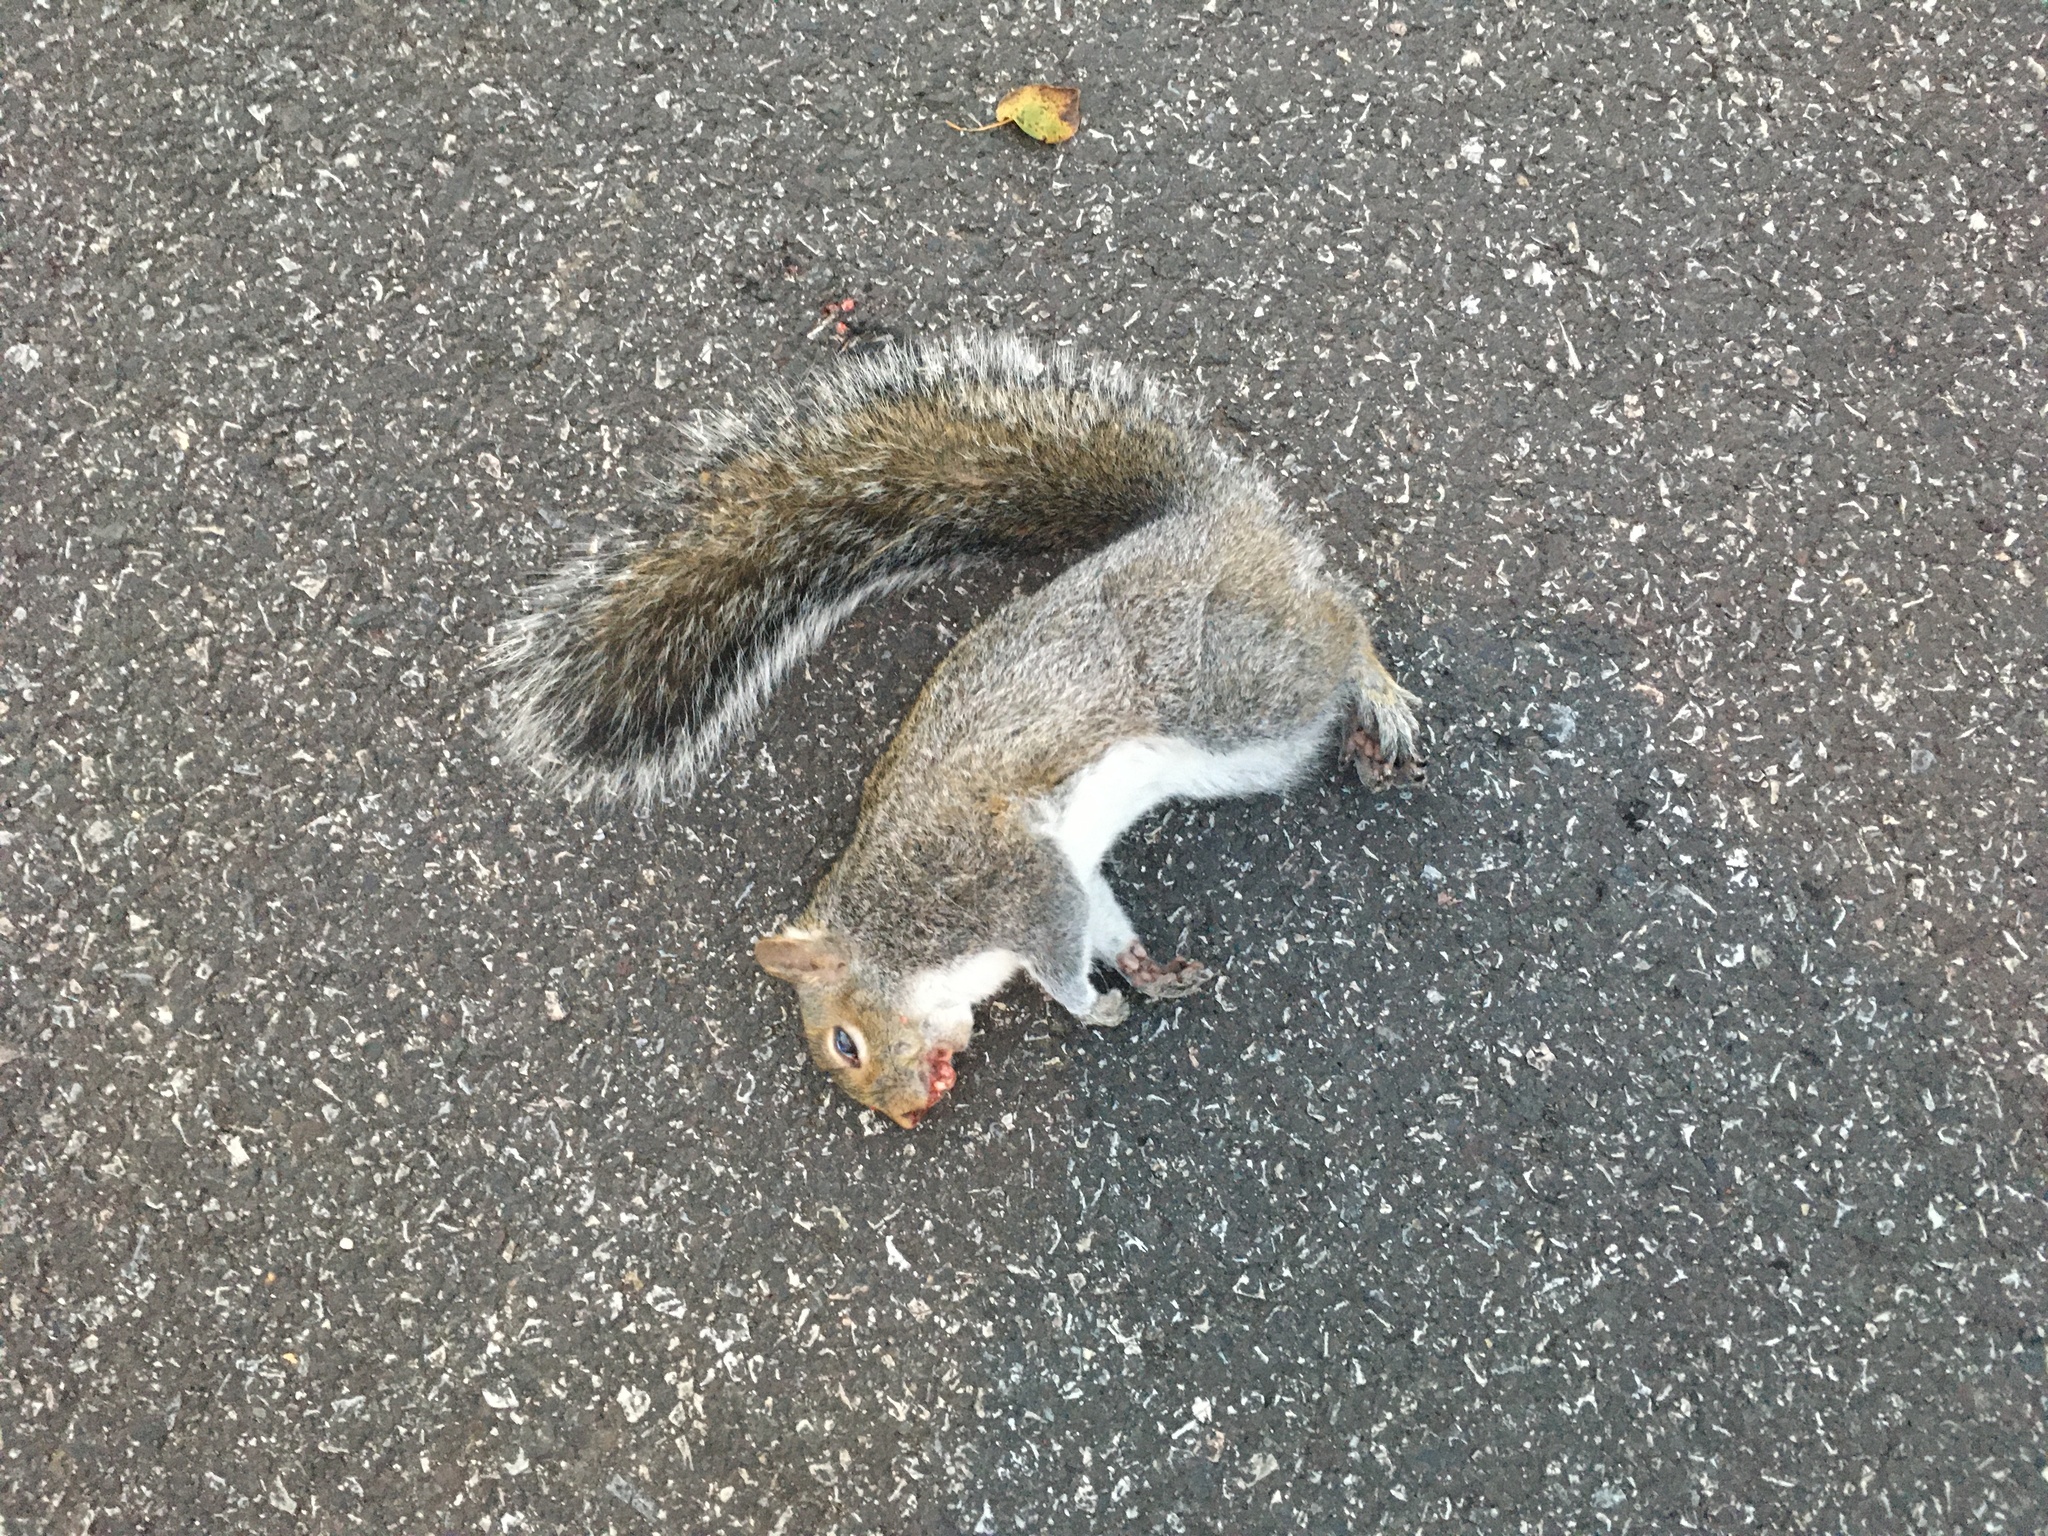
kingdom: Animalia
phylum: Chordata
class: Mammalia
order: Rodentia
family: Sciuridae
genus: Sciurus
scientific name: Sciurus carolinensis
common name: Eastern gray squirrel
